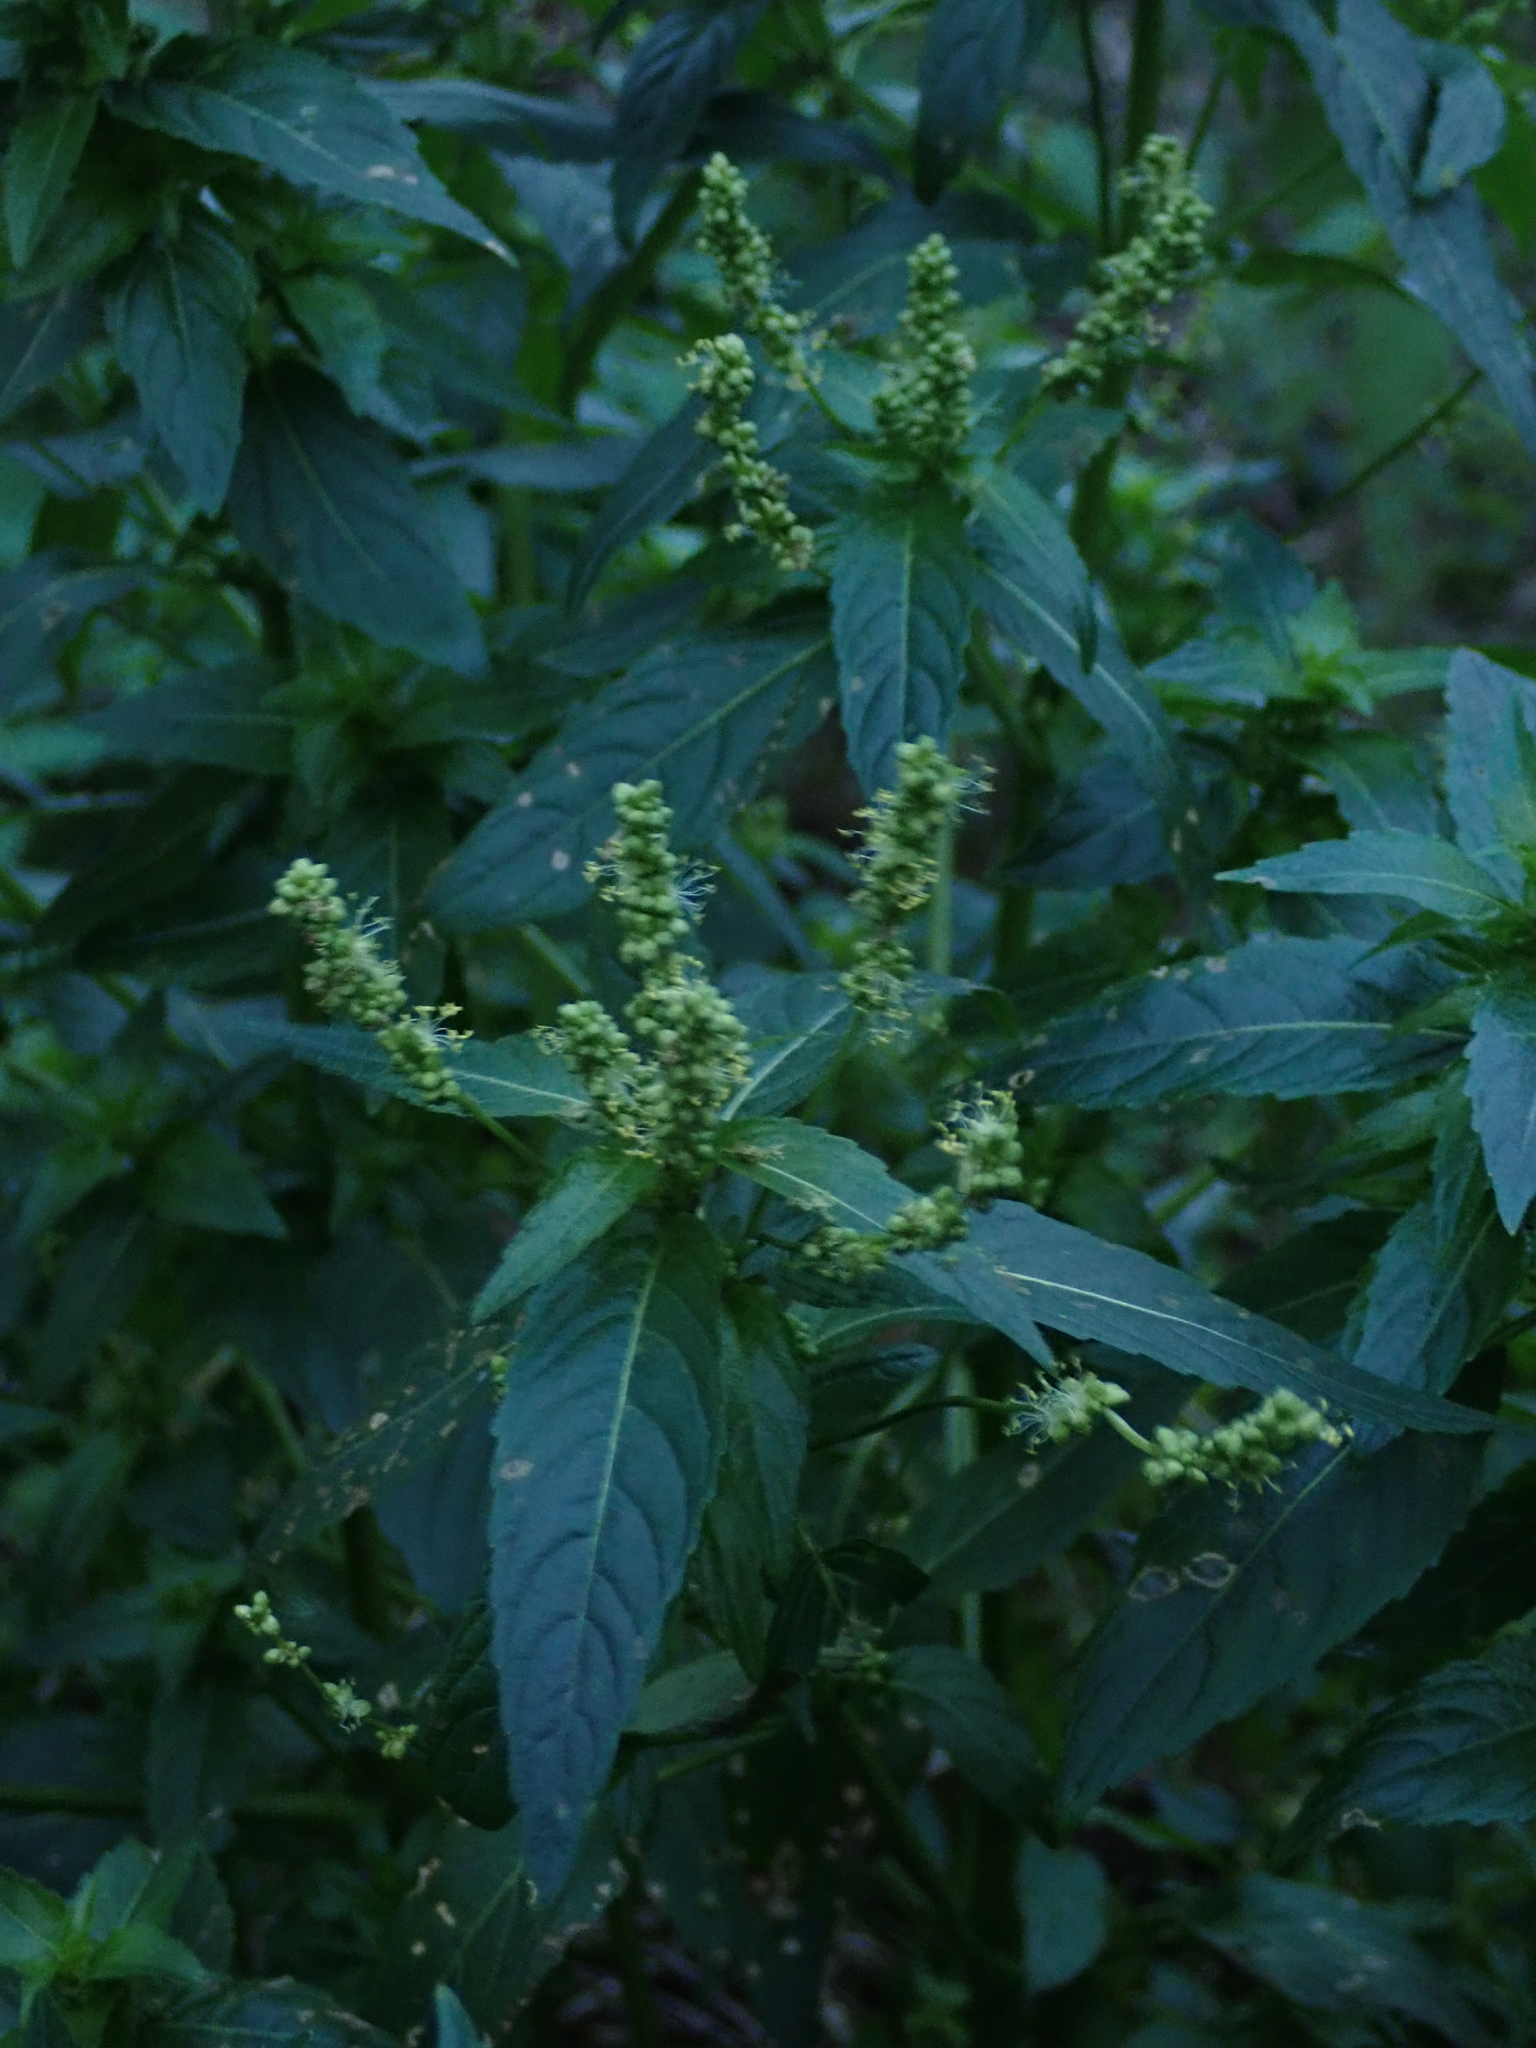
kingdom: Plantae
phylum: Tracheophyta
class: Magnoliopsida
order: Malpighiales
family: Euphorbiaceae
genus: Mercurialis
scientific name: Mercurialis annua
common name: Annual mercury
